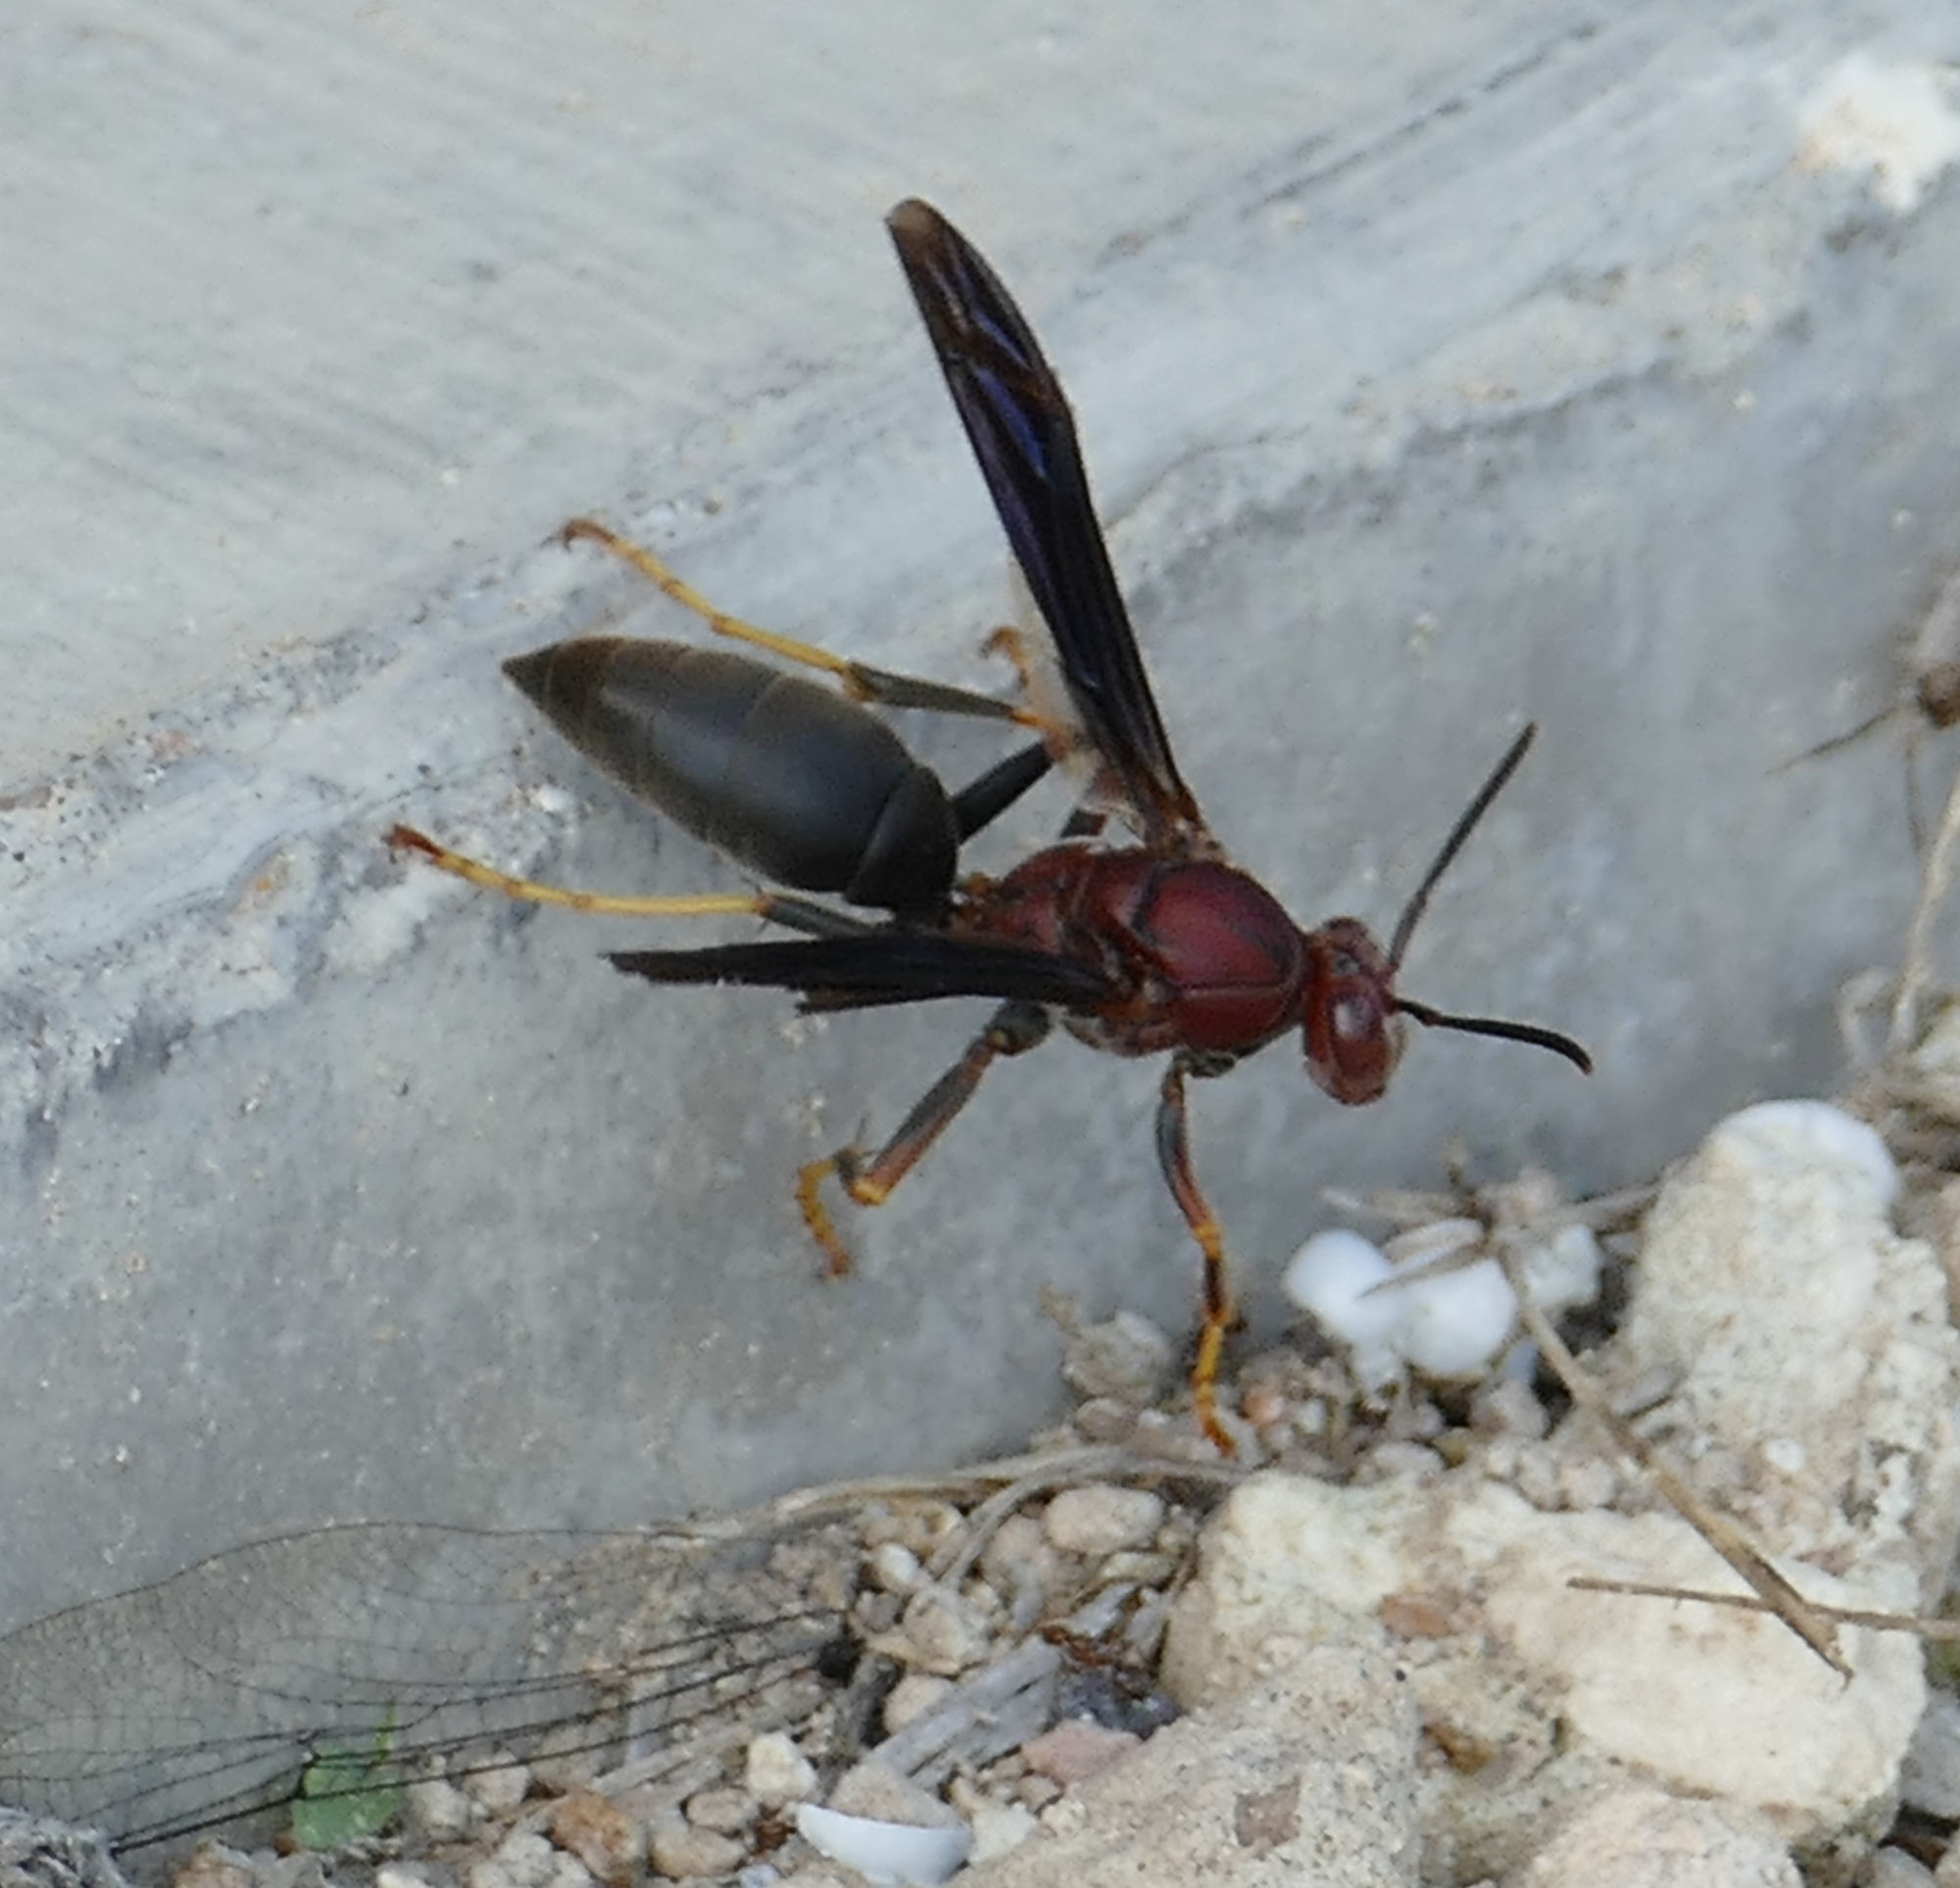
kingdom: Animalia
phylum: Arthropoda
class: Insecta
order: Hymenoptera
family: Eumenidae
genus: Polistes
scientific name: Polistes metricus
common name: Metric paper wasp
